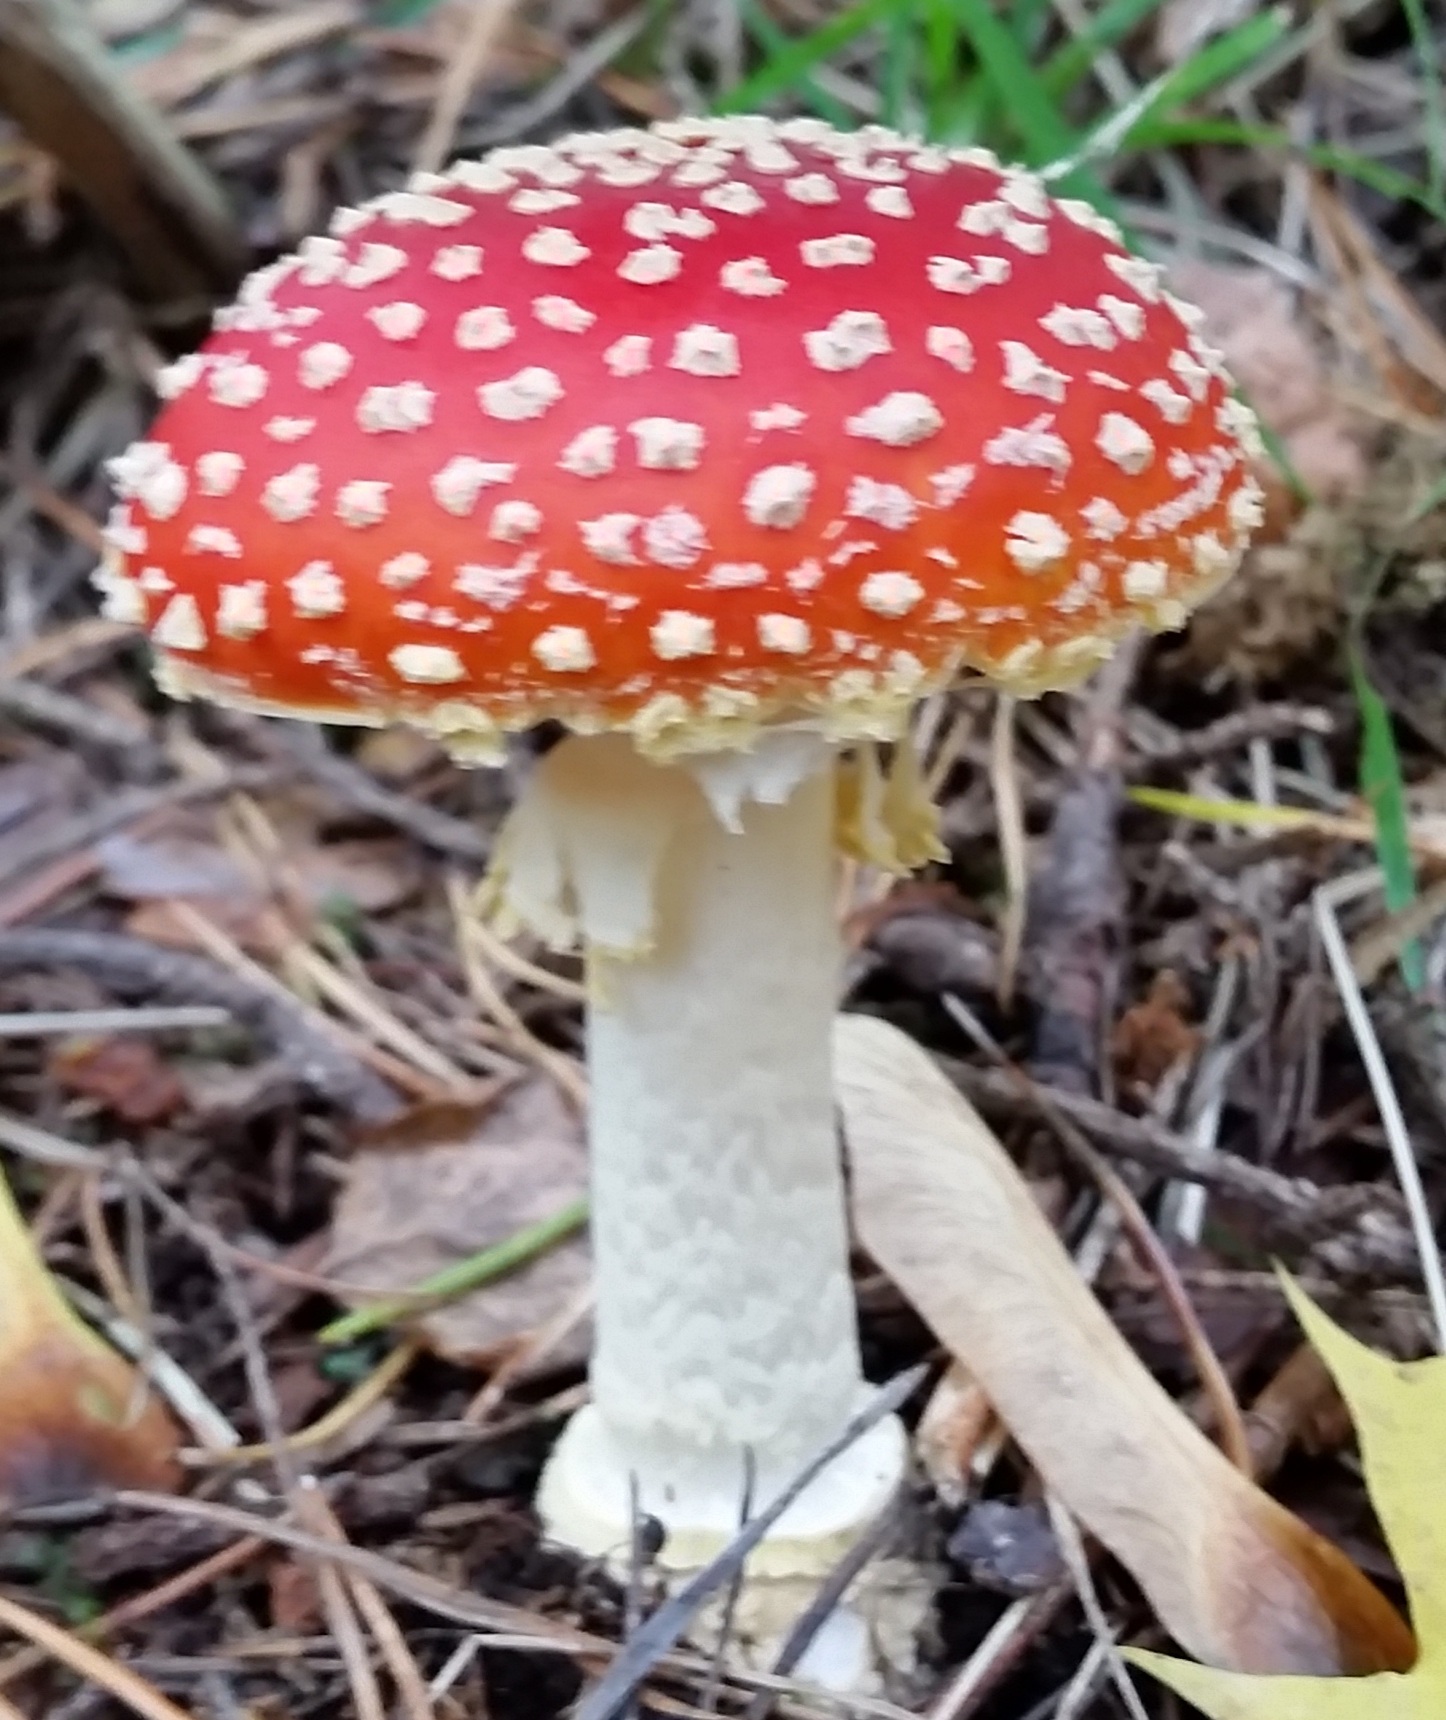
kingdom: Fungi
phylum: Basidiomycota
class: Agaricomycetes
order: Agaricales
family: Amanitaceae
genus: Amanita
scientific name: Amanita muscaria
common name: Fly agaric
